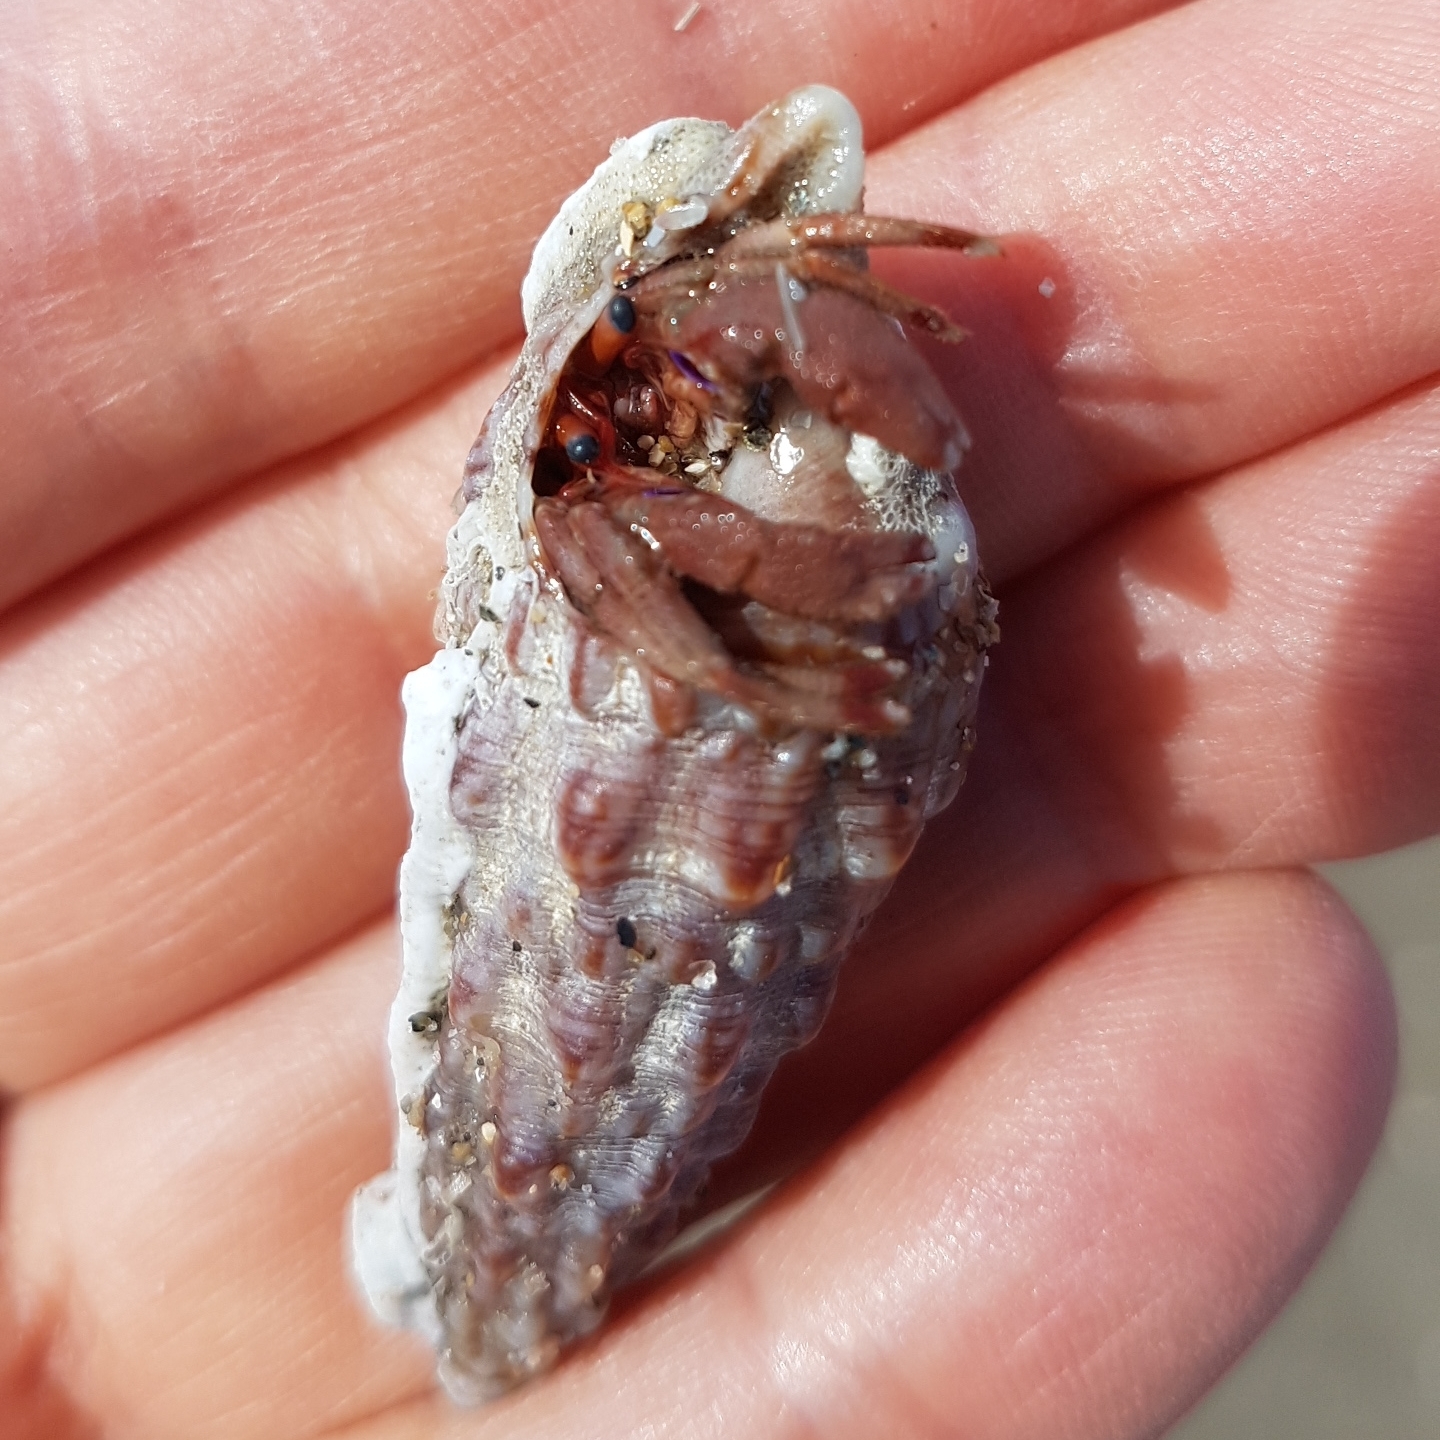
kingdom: Animalia
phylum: Arthropoda
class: Malacostraca
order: Decapoda
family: Diogenidae
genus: Paguristes
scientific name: Paguristes eremita
